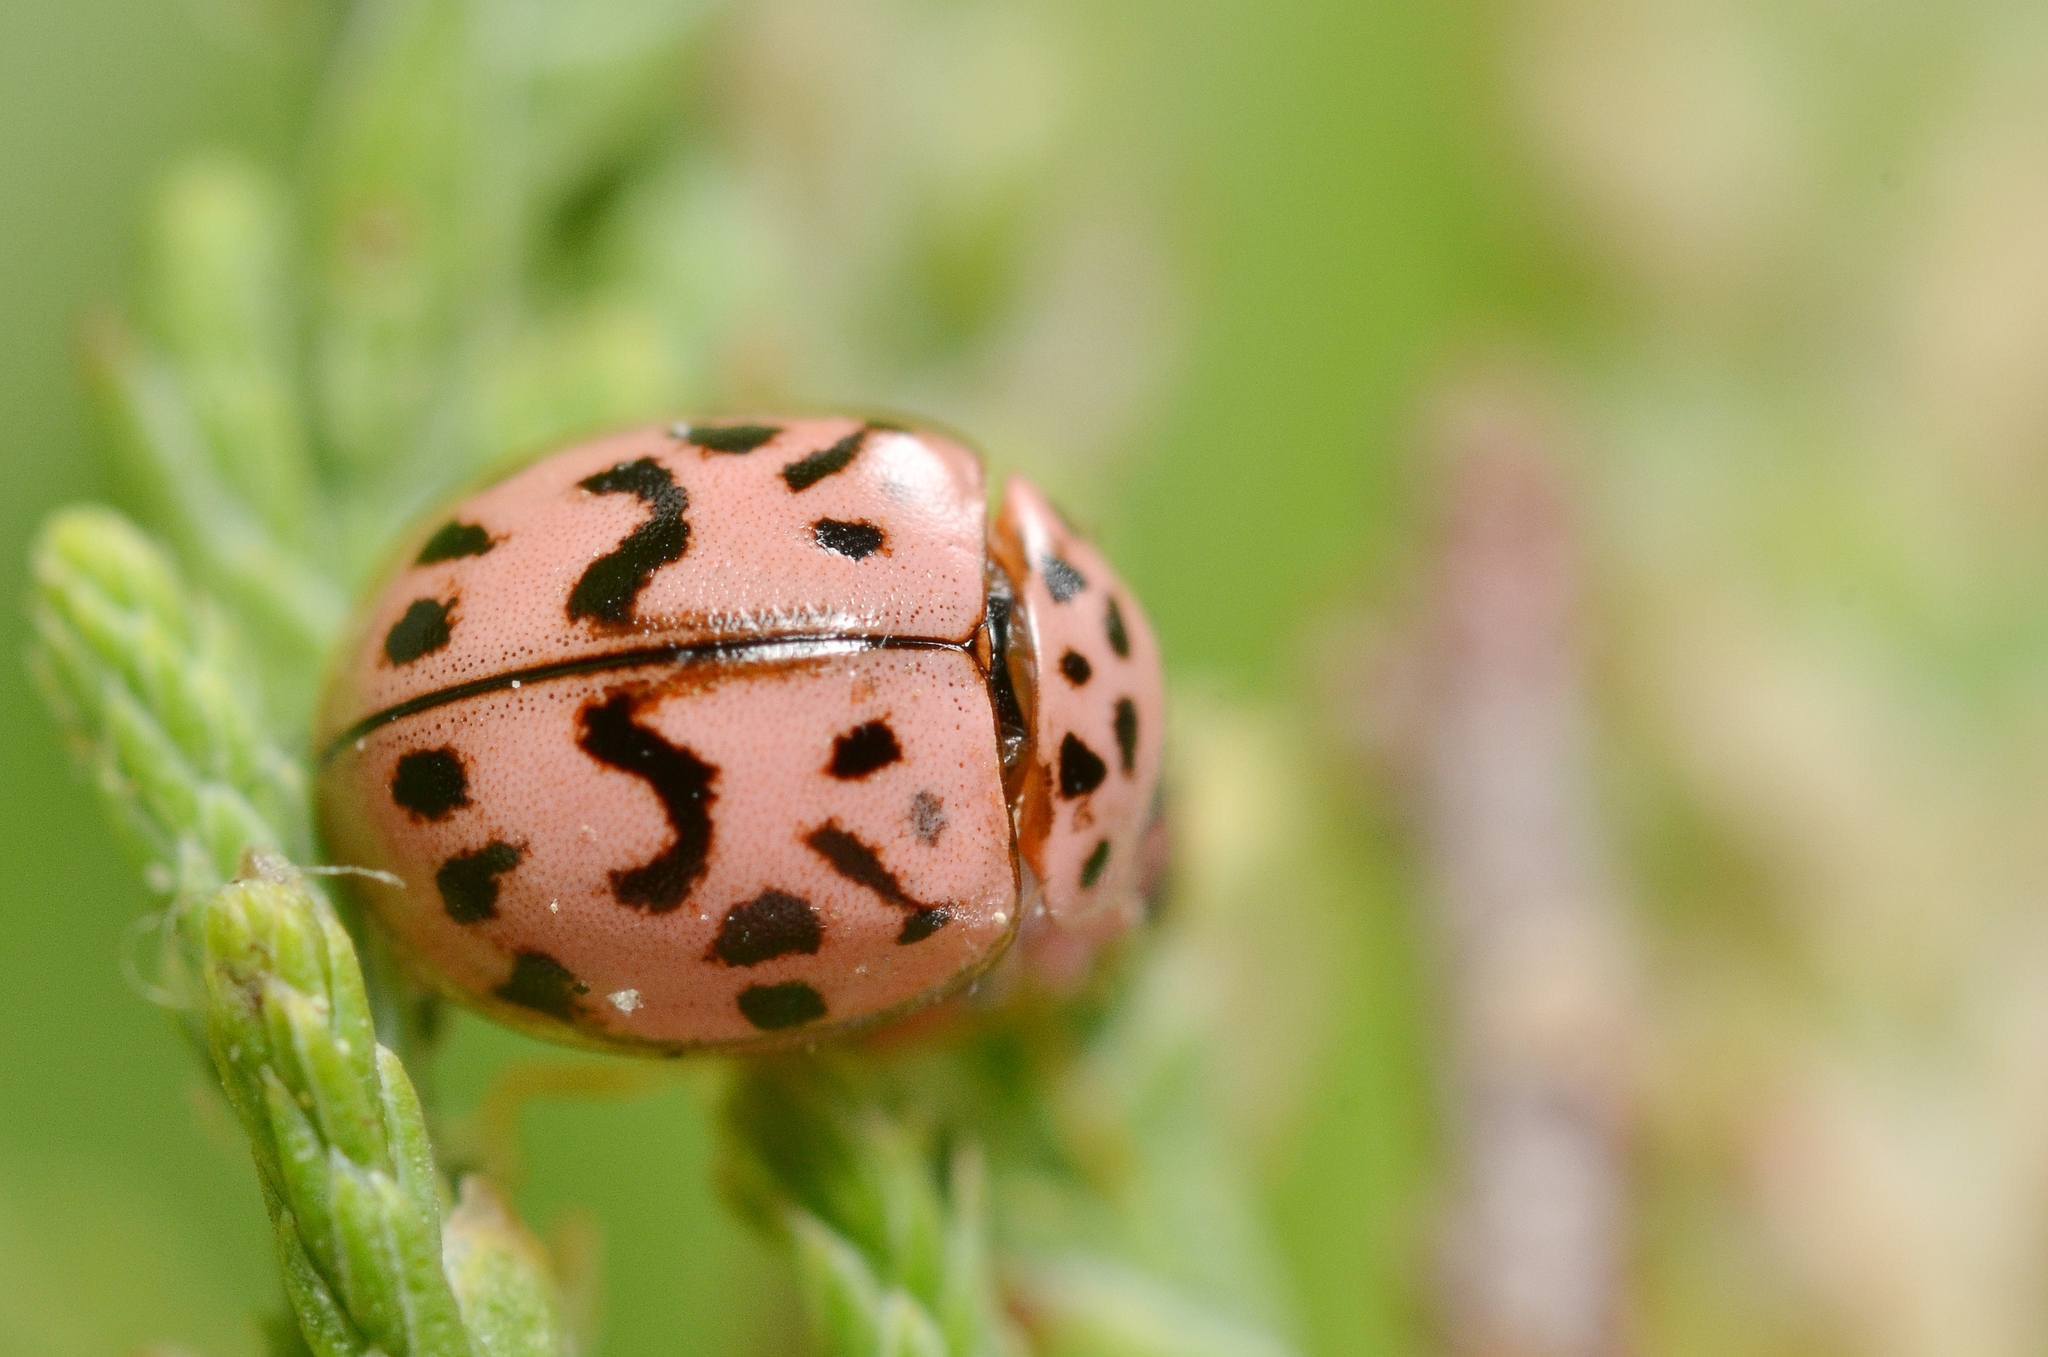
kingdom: Animalia
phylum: Arthropoda
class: Insecta
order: Coleoptera
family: Coccinellidae
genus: Oenopia
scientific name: Oenopia doublieri
